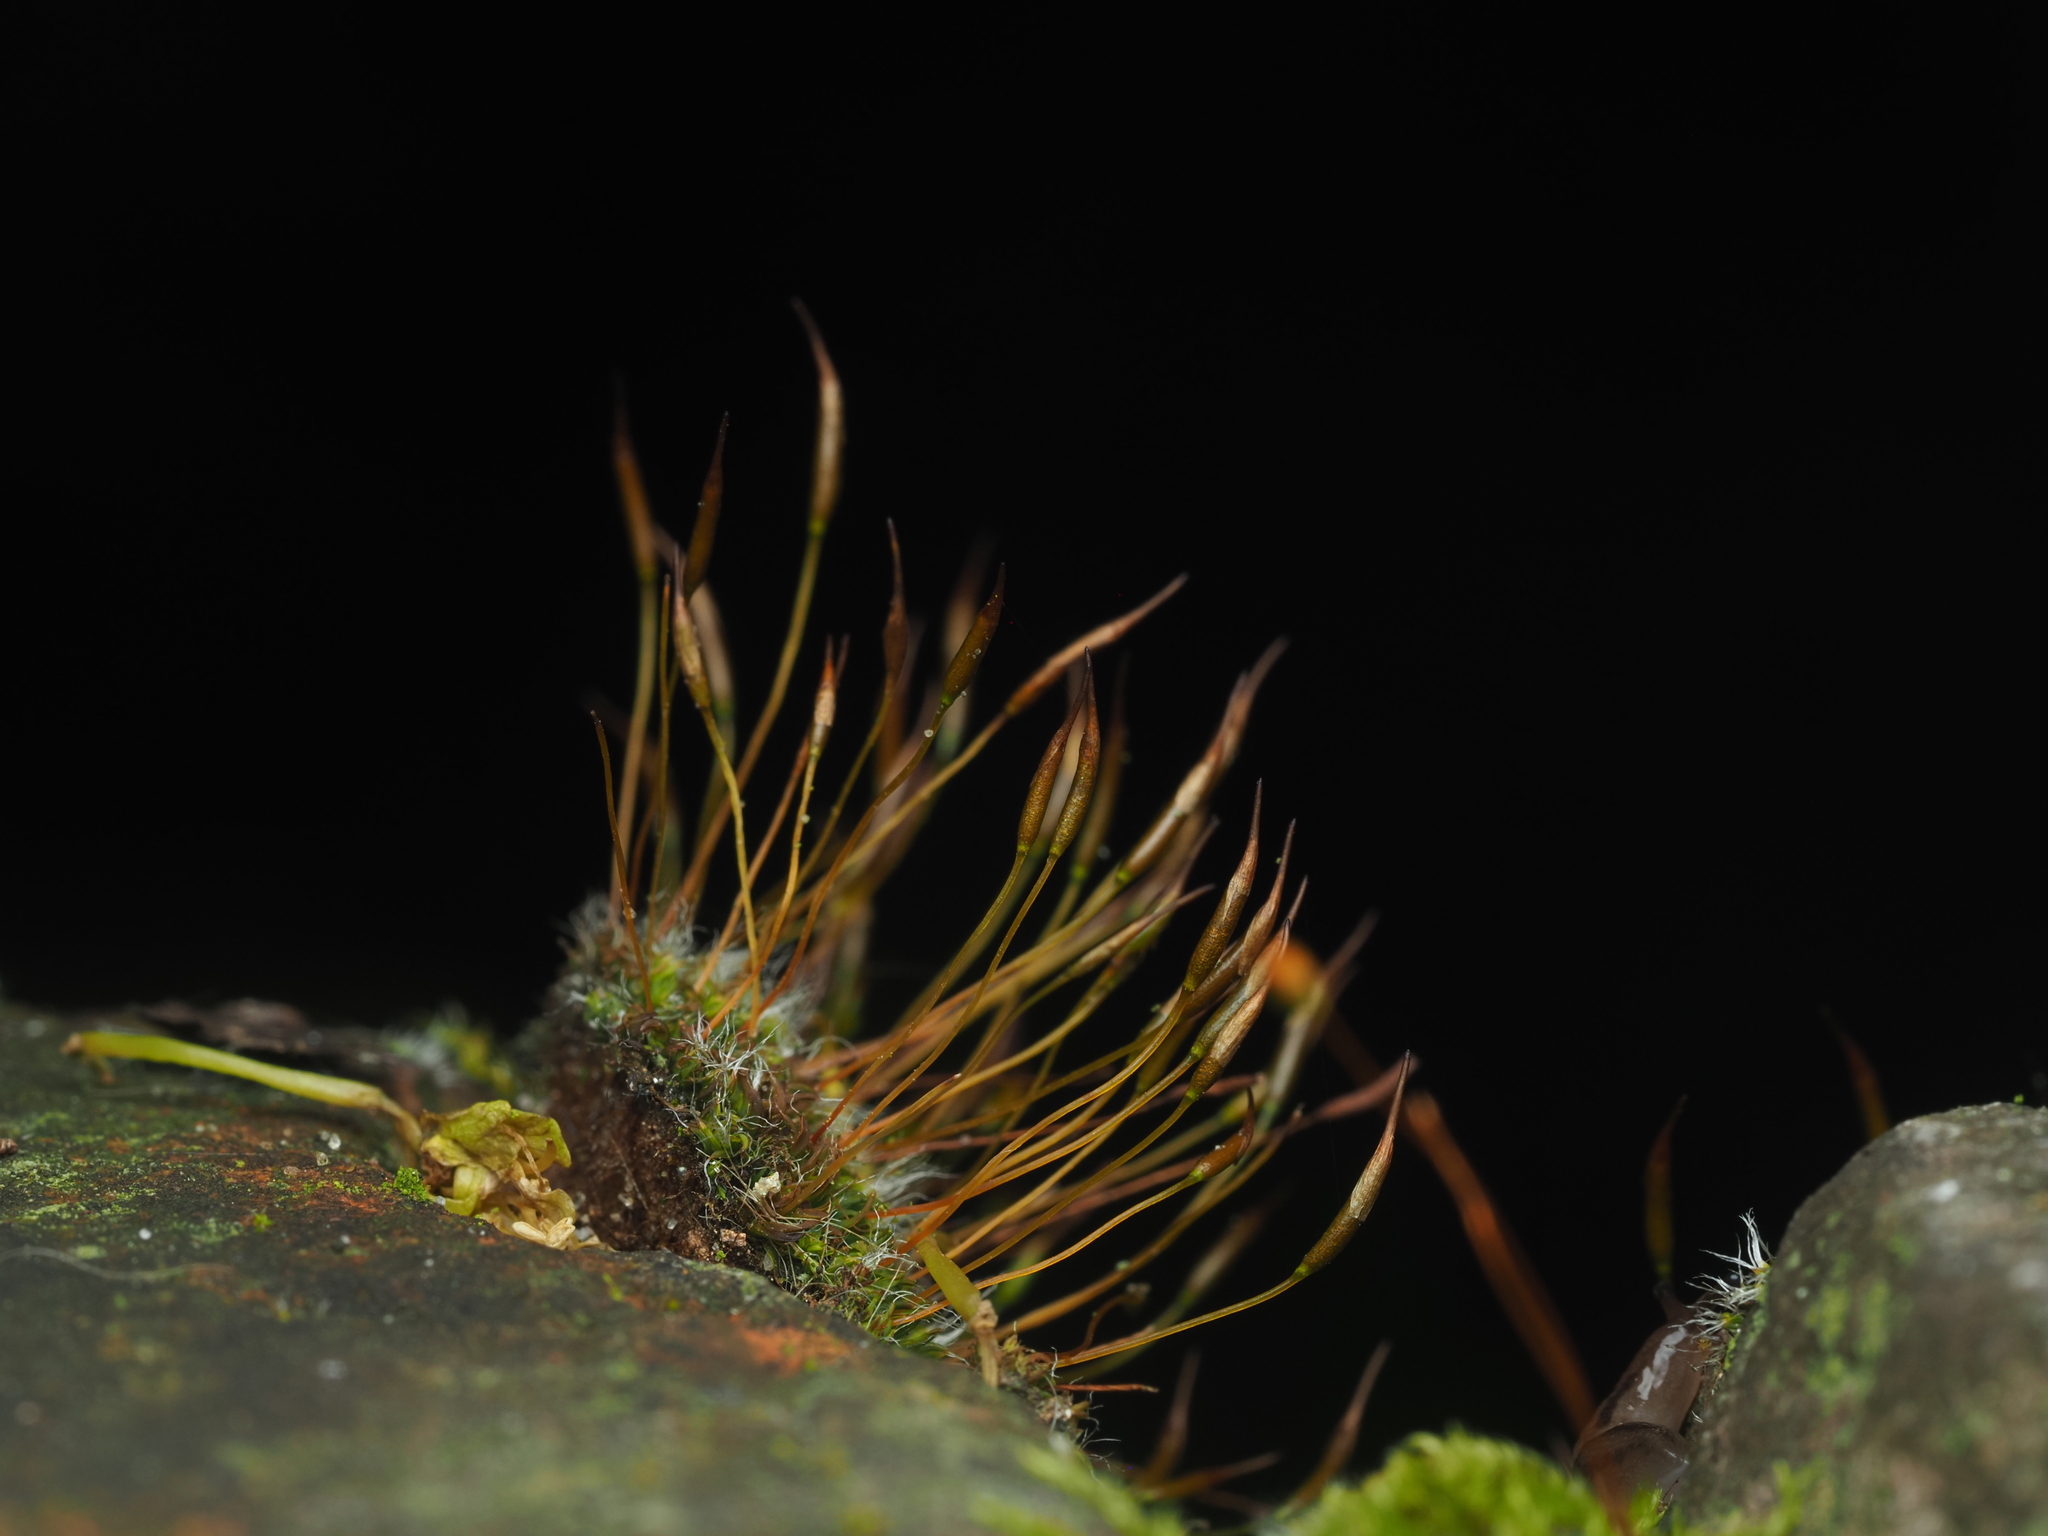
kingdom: Plantae
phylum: Bryophyta
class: Bryopsida
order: Pottiales
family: Pottiaceae
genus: Tortula
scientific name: Tortula muralis
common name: Wall screw-moss
